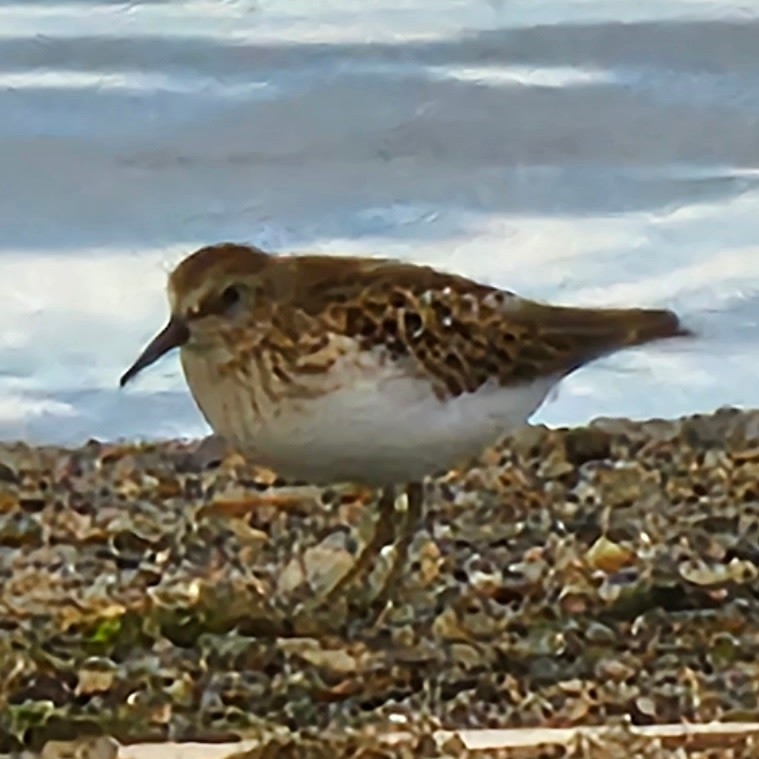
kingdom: Animalia
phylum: Chordata
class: Aves
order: Charadriiformes
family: Scolopacidae
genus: Calidris
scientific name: Calidris minutilla
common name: Least sandpiper
